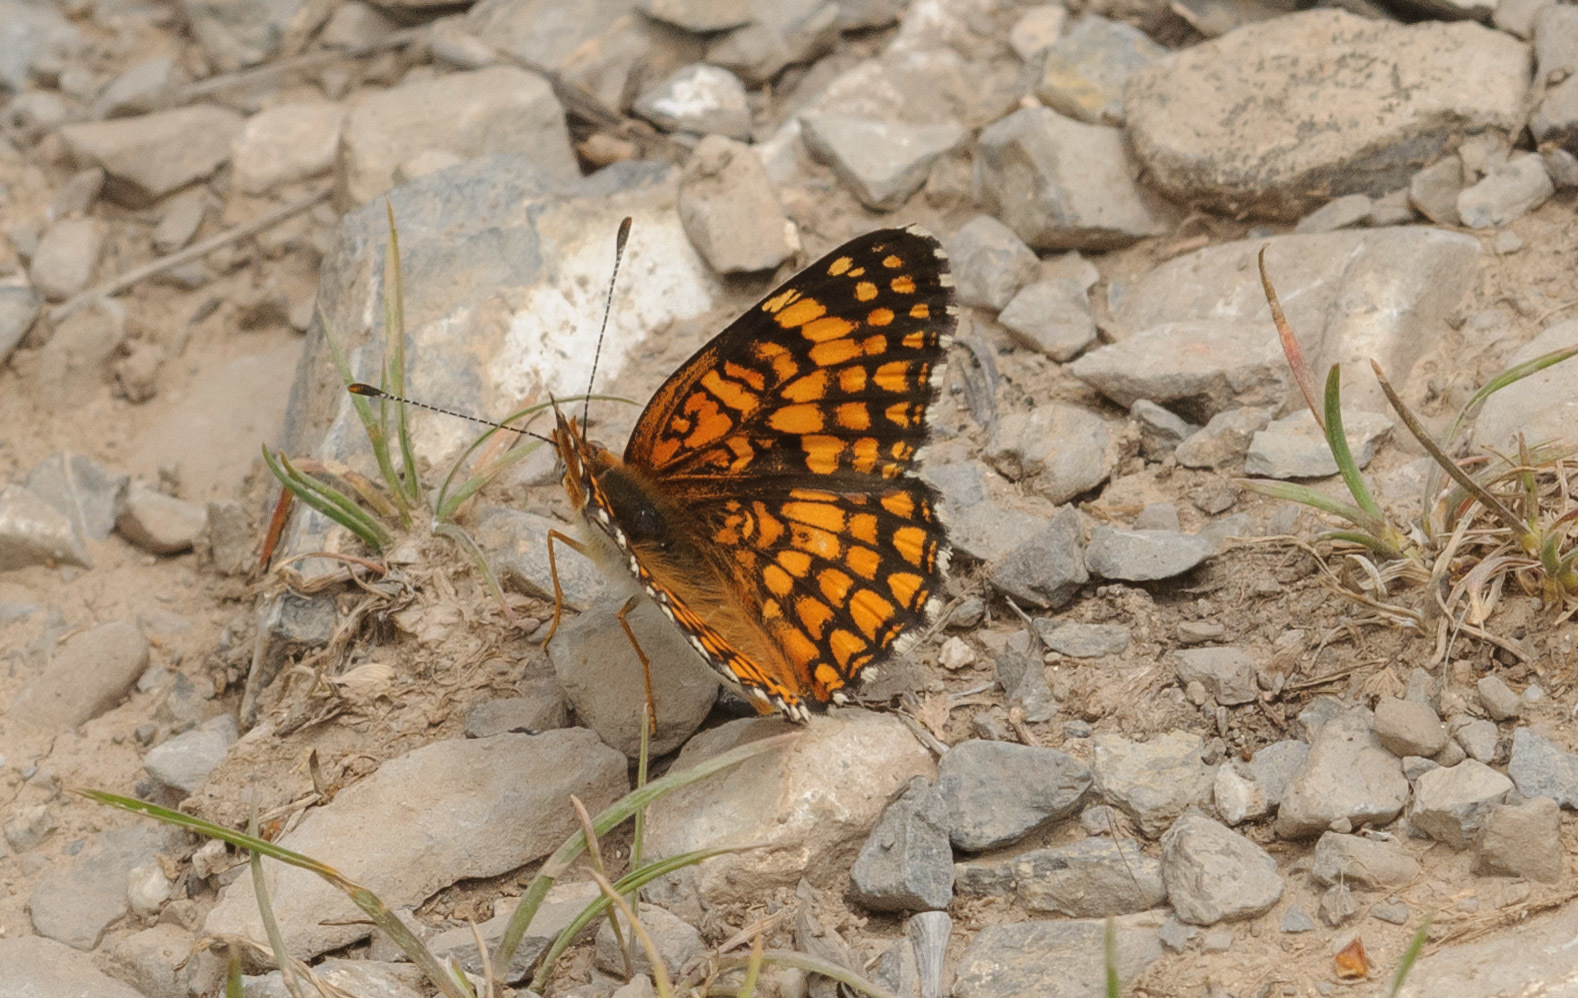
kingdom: Animalia
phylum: Arthropoda
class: Insecta
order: Lepidoptera
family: Nymphalidae
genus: Chlosyne
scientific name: Chlosyne acastus
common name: Sagebrush checkerspot
